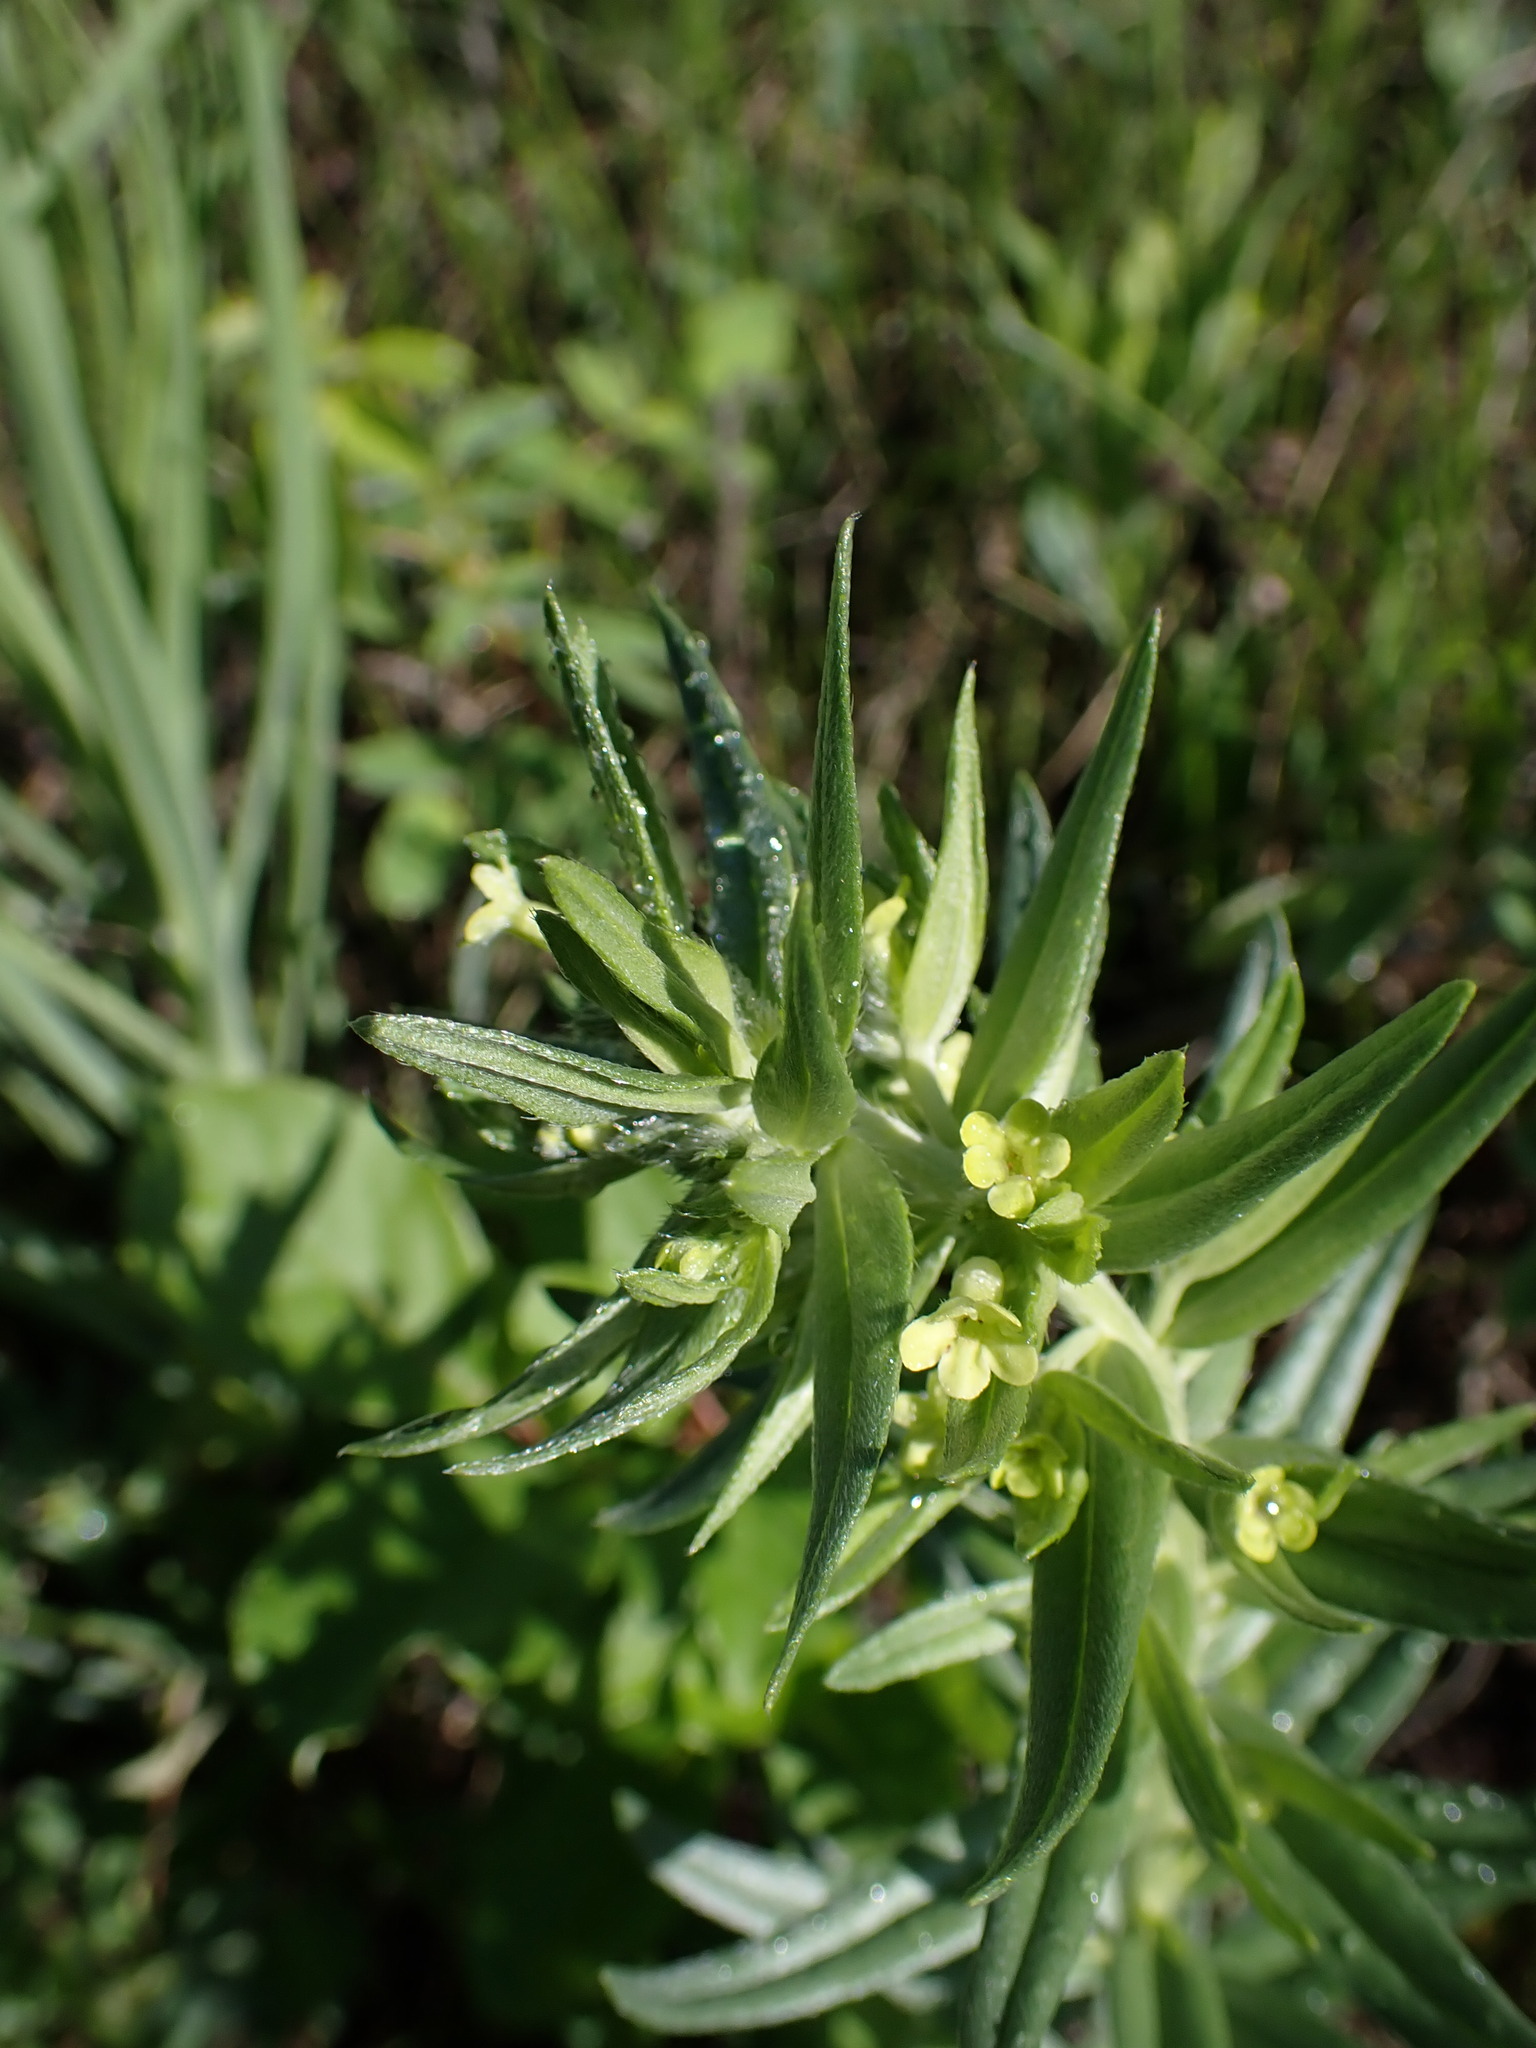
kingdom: Plantae
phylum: Tracheophyta
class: Magnoliopsida
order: Boraginales
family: Boraginaceae
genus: Lithospermum
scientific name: Lithospermum ruderale
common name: Western gromwell
